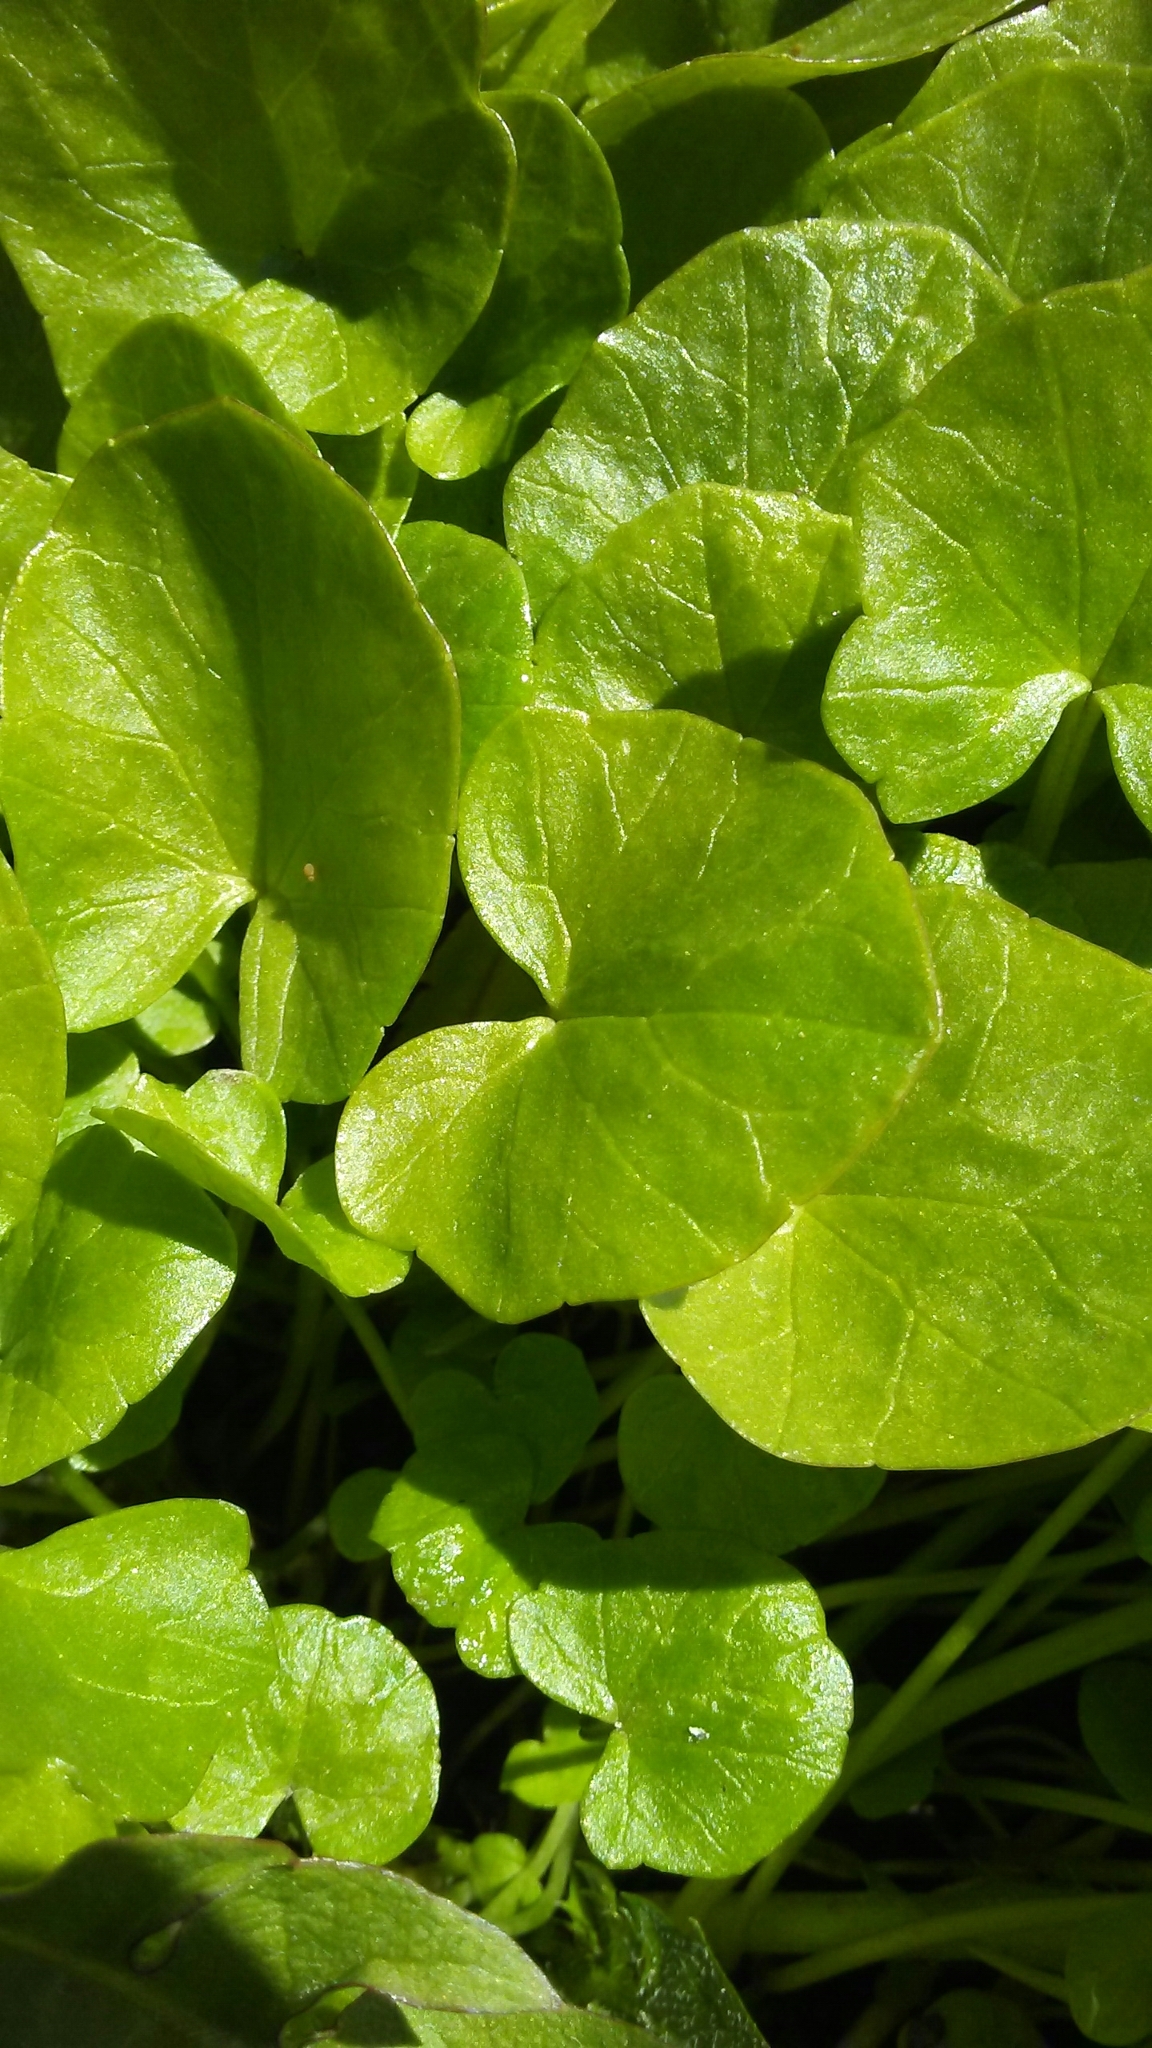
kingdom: Plantae
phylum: Tracheophyta
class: Magnoliopsida
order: Ranunculales
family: Ranunculaceae
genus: Ficaria
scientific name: Ficaria verna
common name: Lesser celandine
